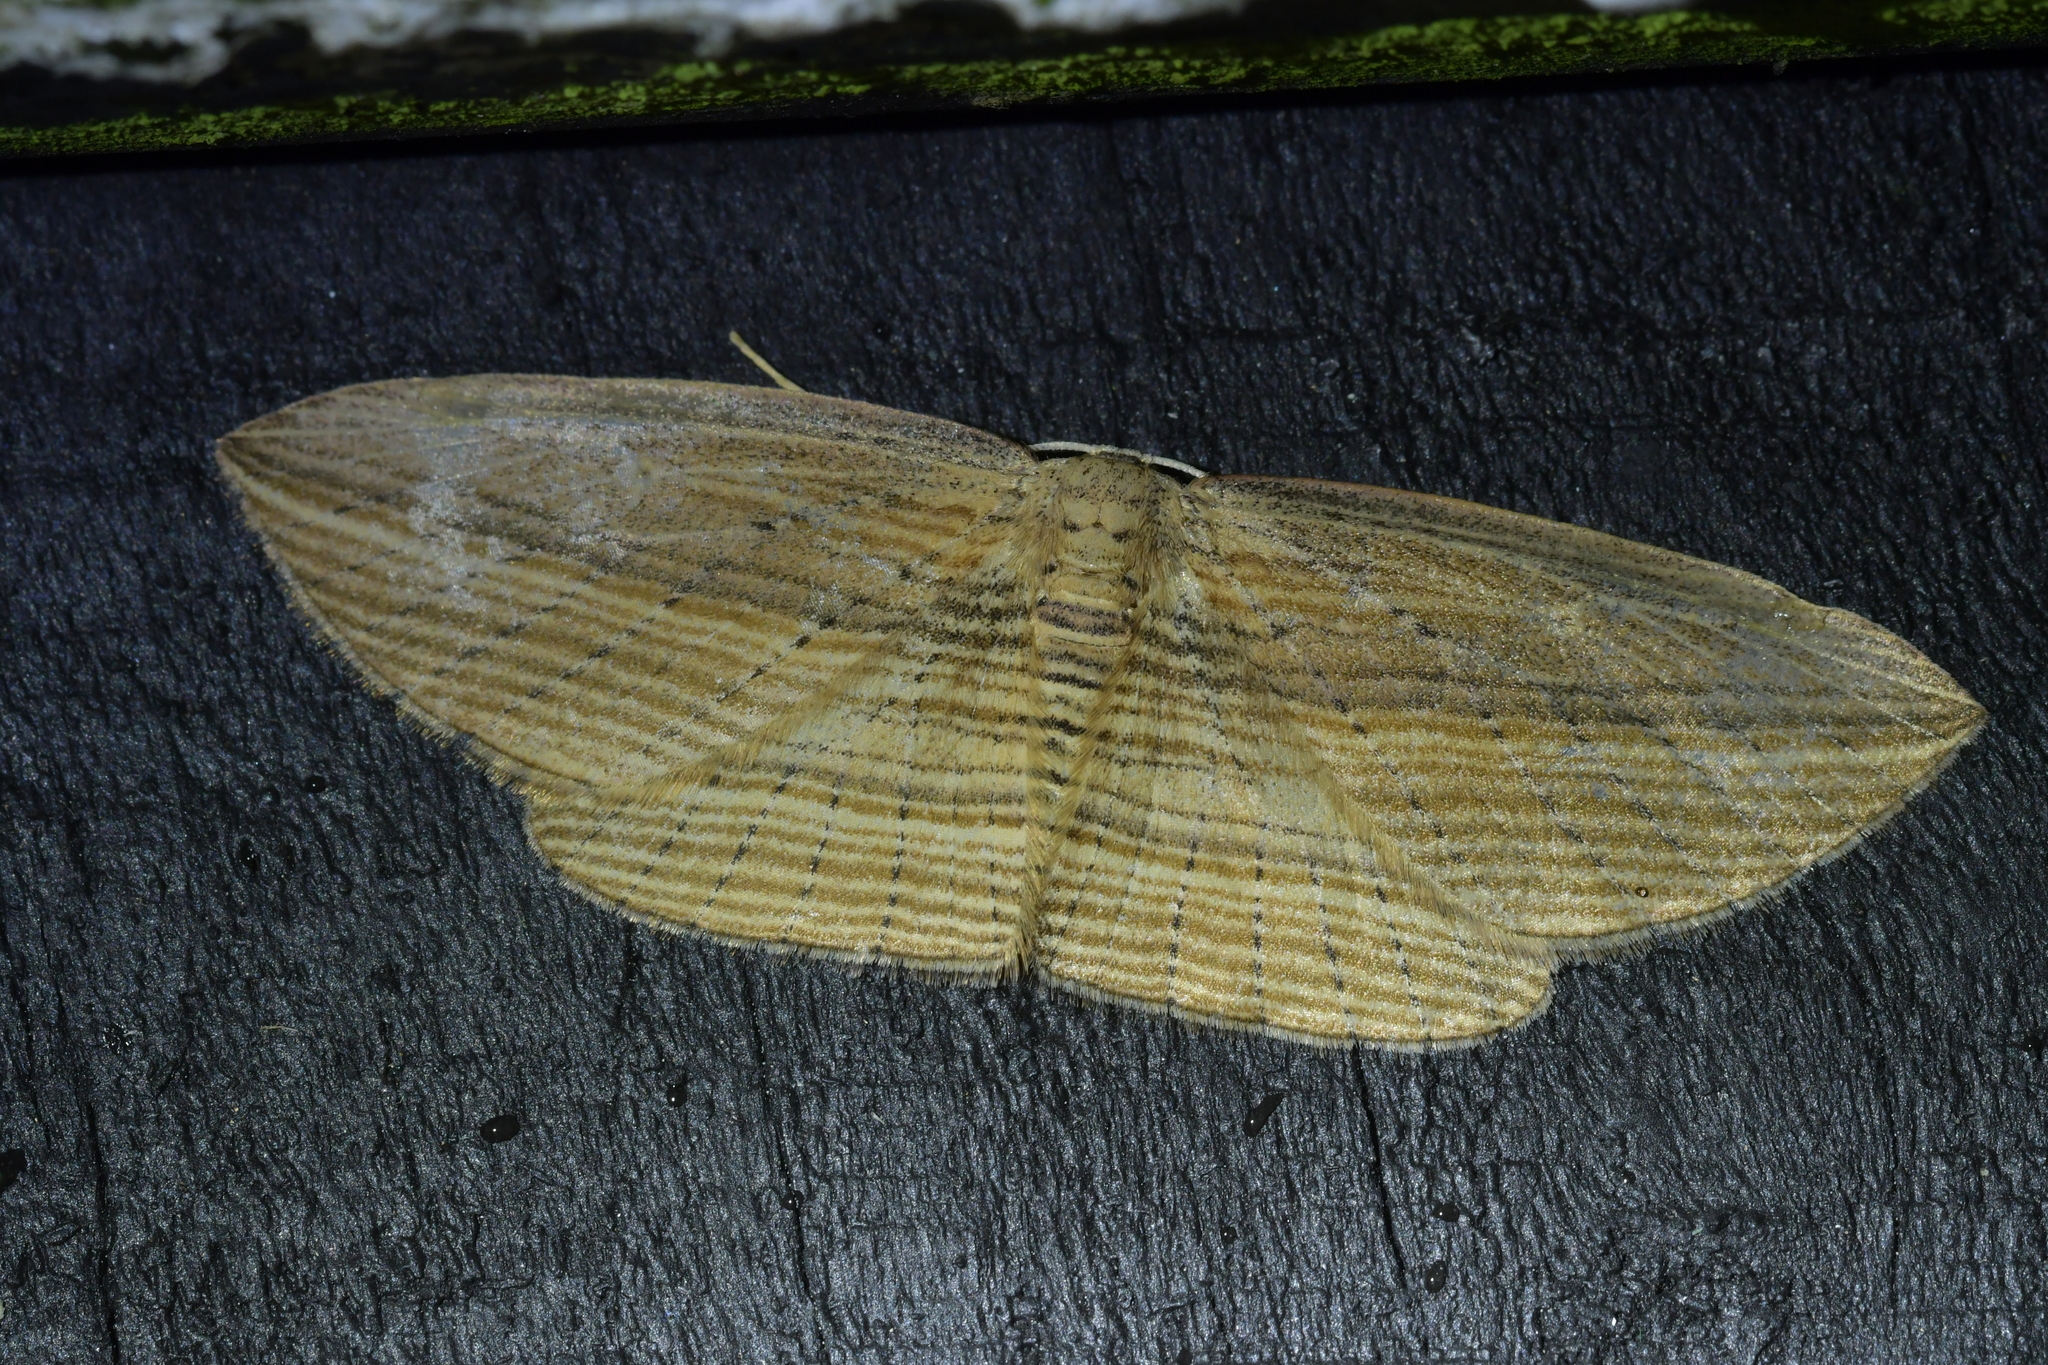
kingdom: Animalia
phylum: Arthropoda
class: Insecta
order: Lepidoptera
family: Geometridae
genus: Epiphryne
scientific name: Epiphryne verriculata
